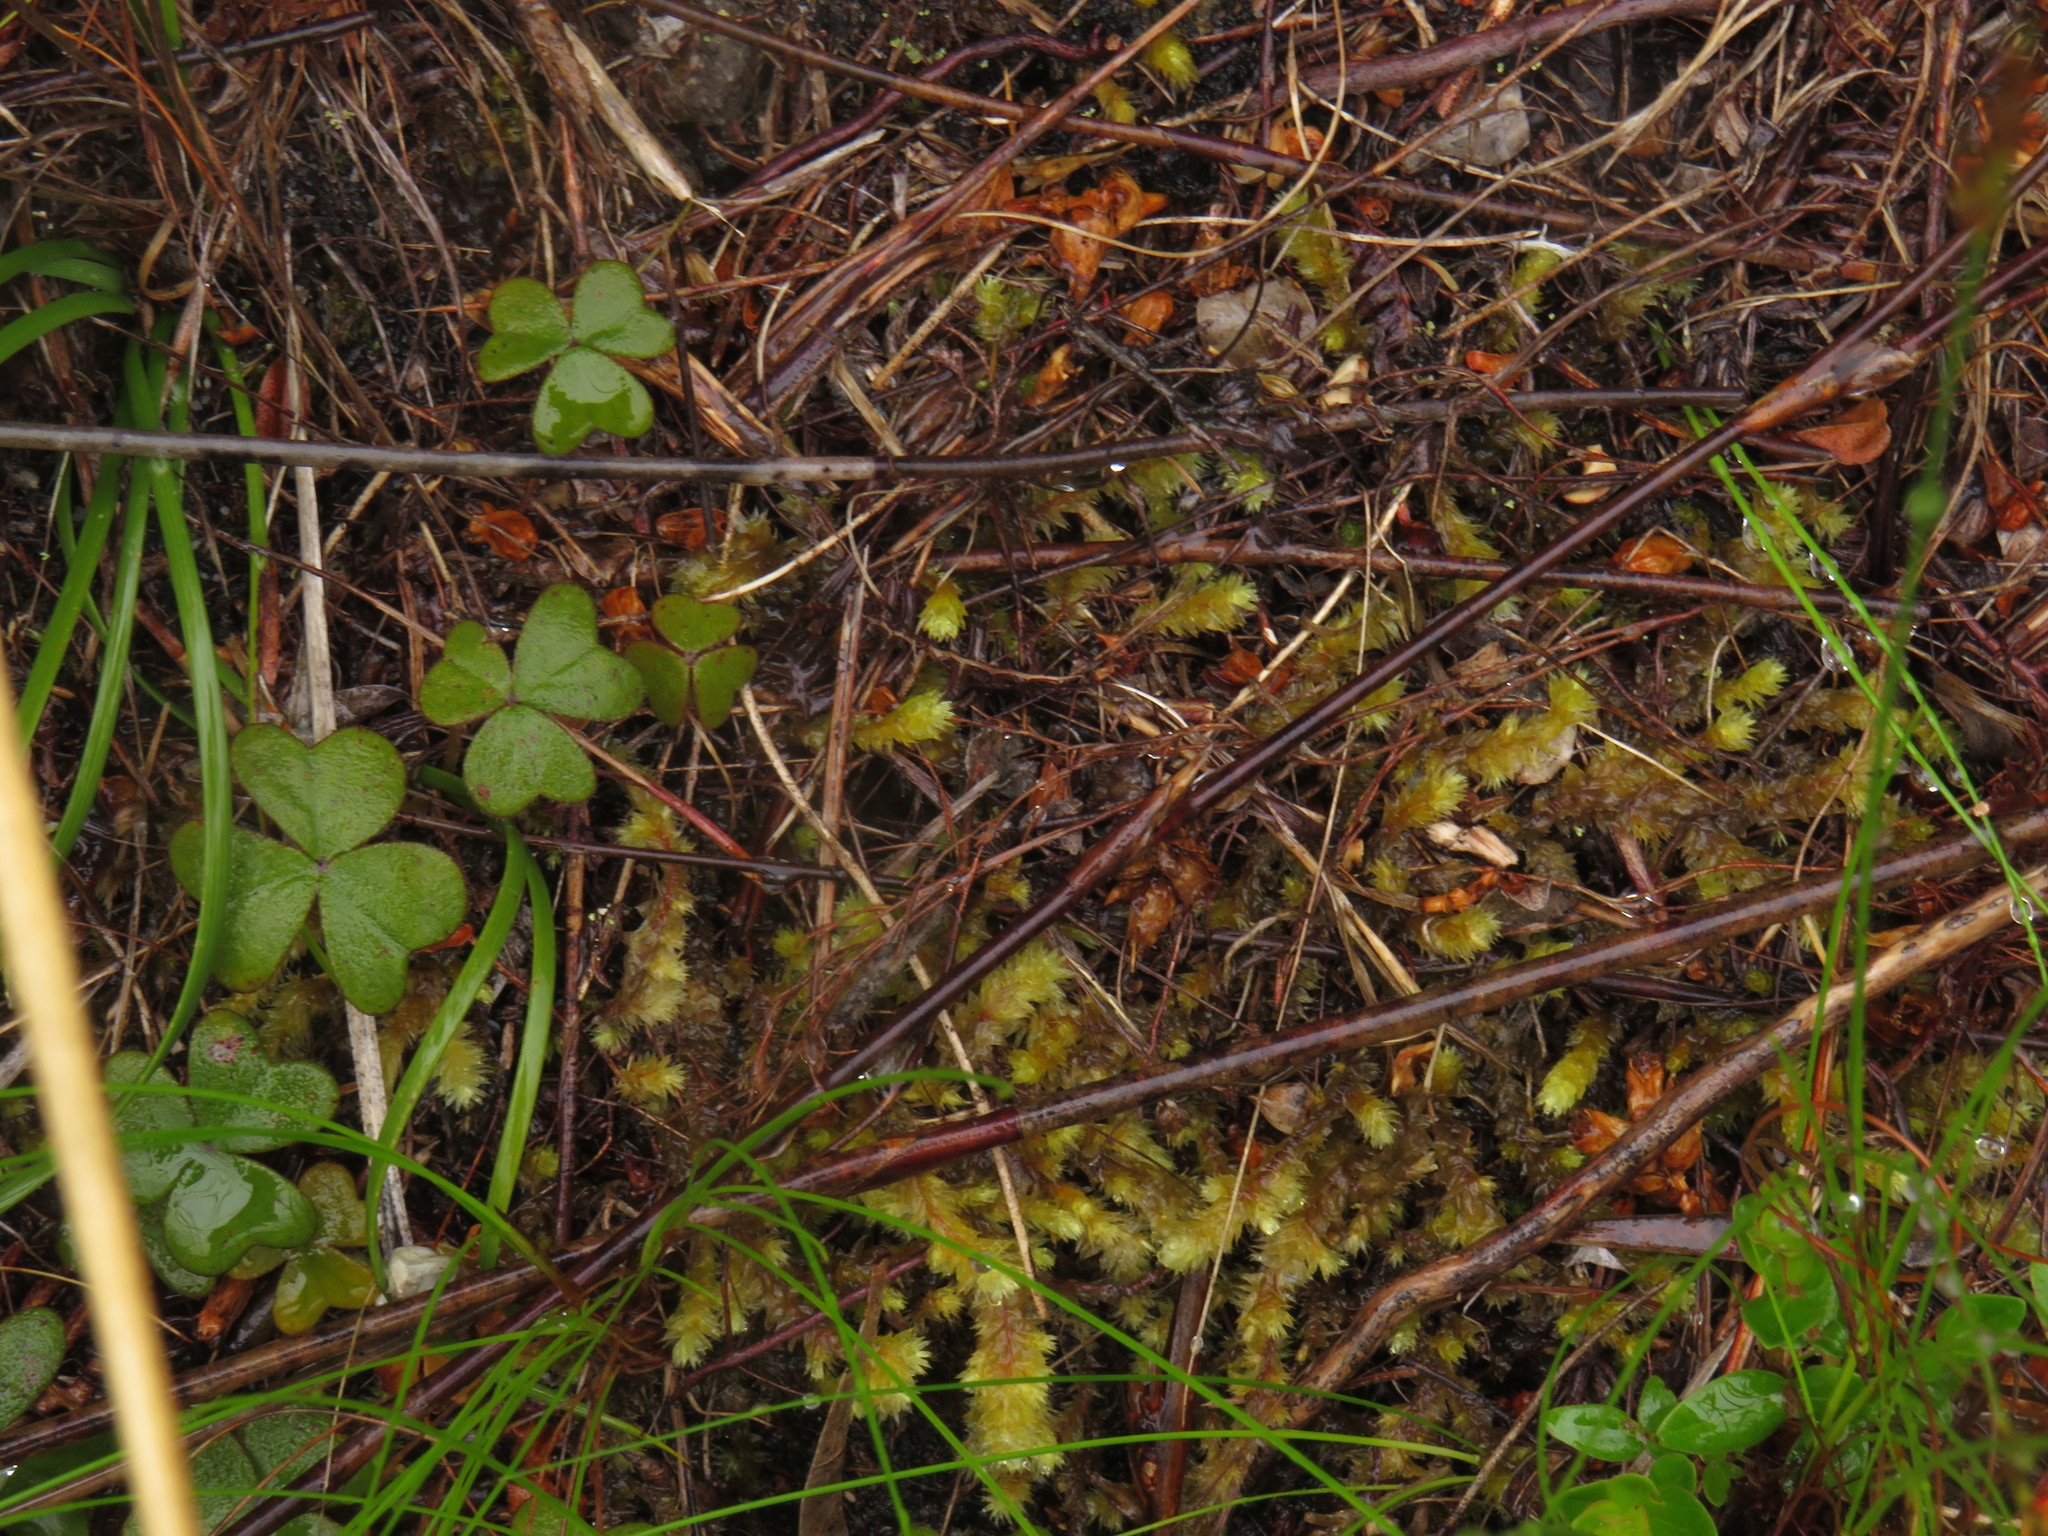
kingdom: Plantae
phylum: Tracheophyta
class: Magnoliopsida
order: Oxalidales
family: Oxalidaceae
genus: Oxalis
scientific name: Oxalis truncatula
